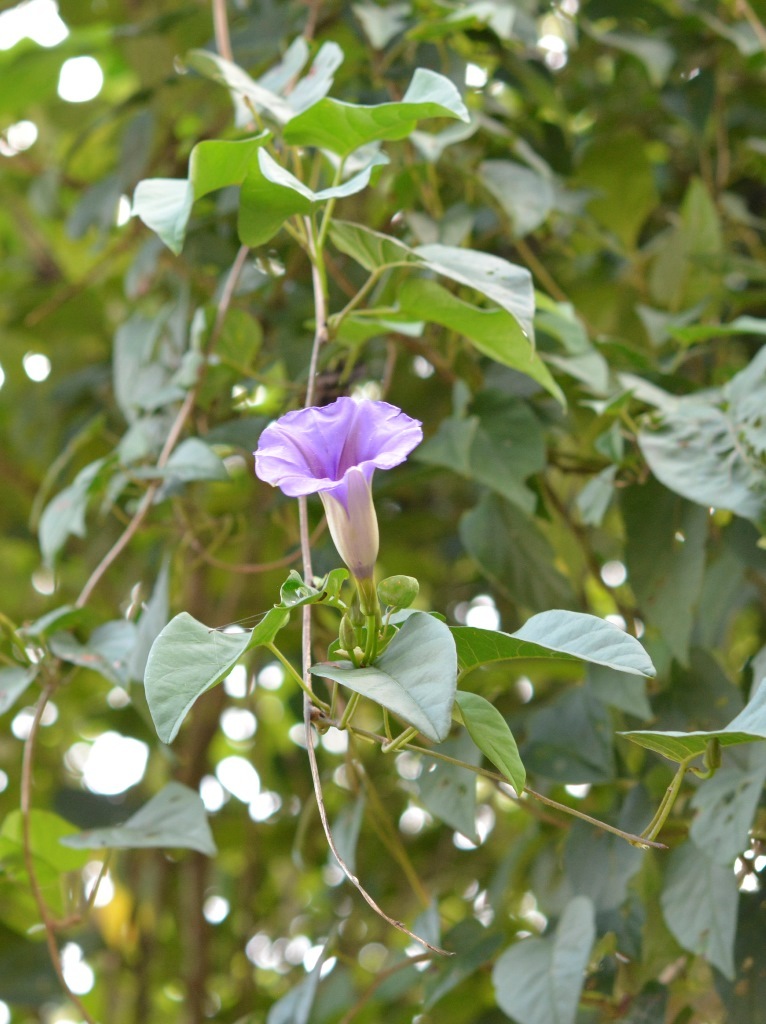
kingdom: Plantae
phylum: Tracheophyta
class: Magnoliopsida
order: Solanales
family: Convolvulaceae
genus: Ipomoea
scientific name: Ipomoea lindenii
